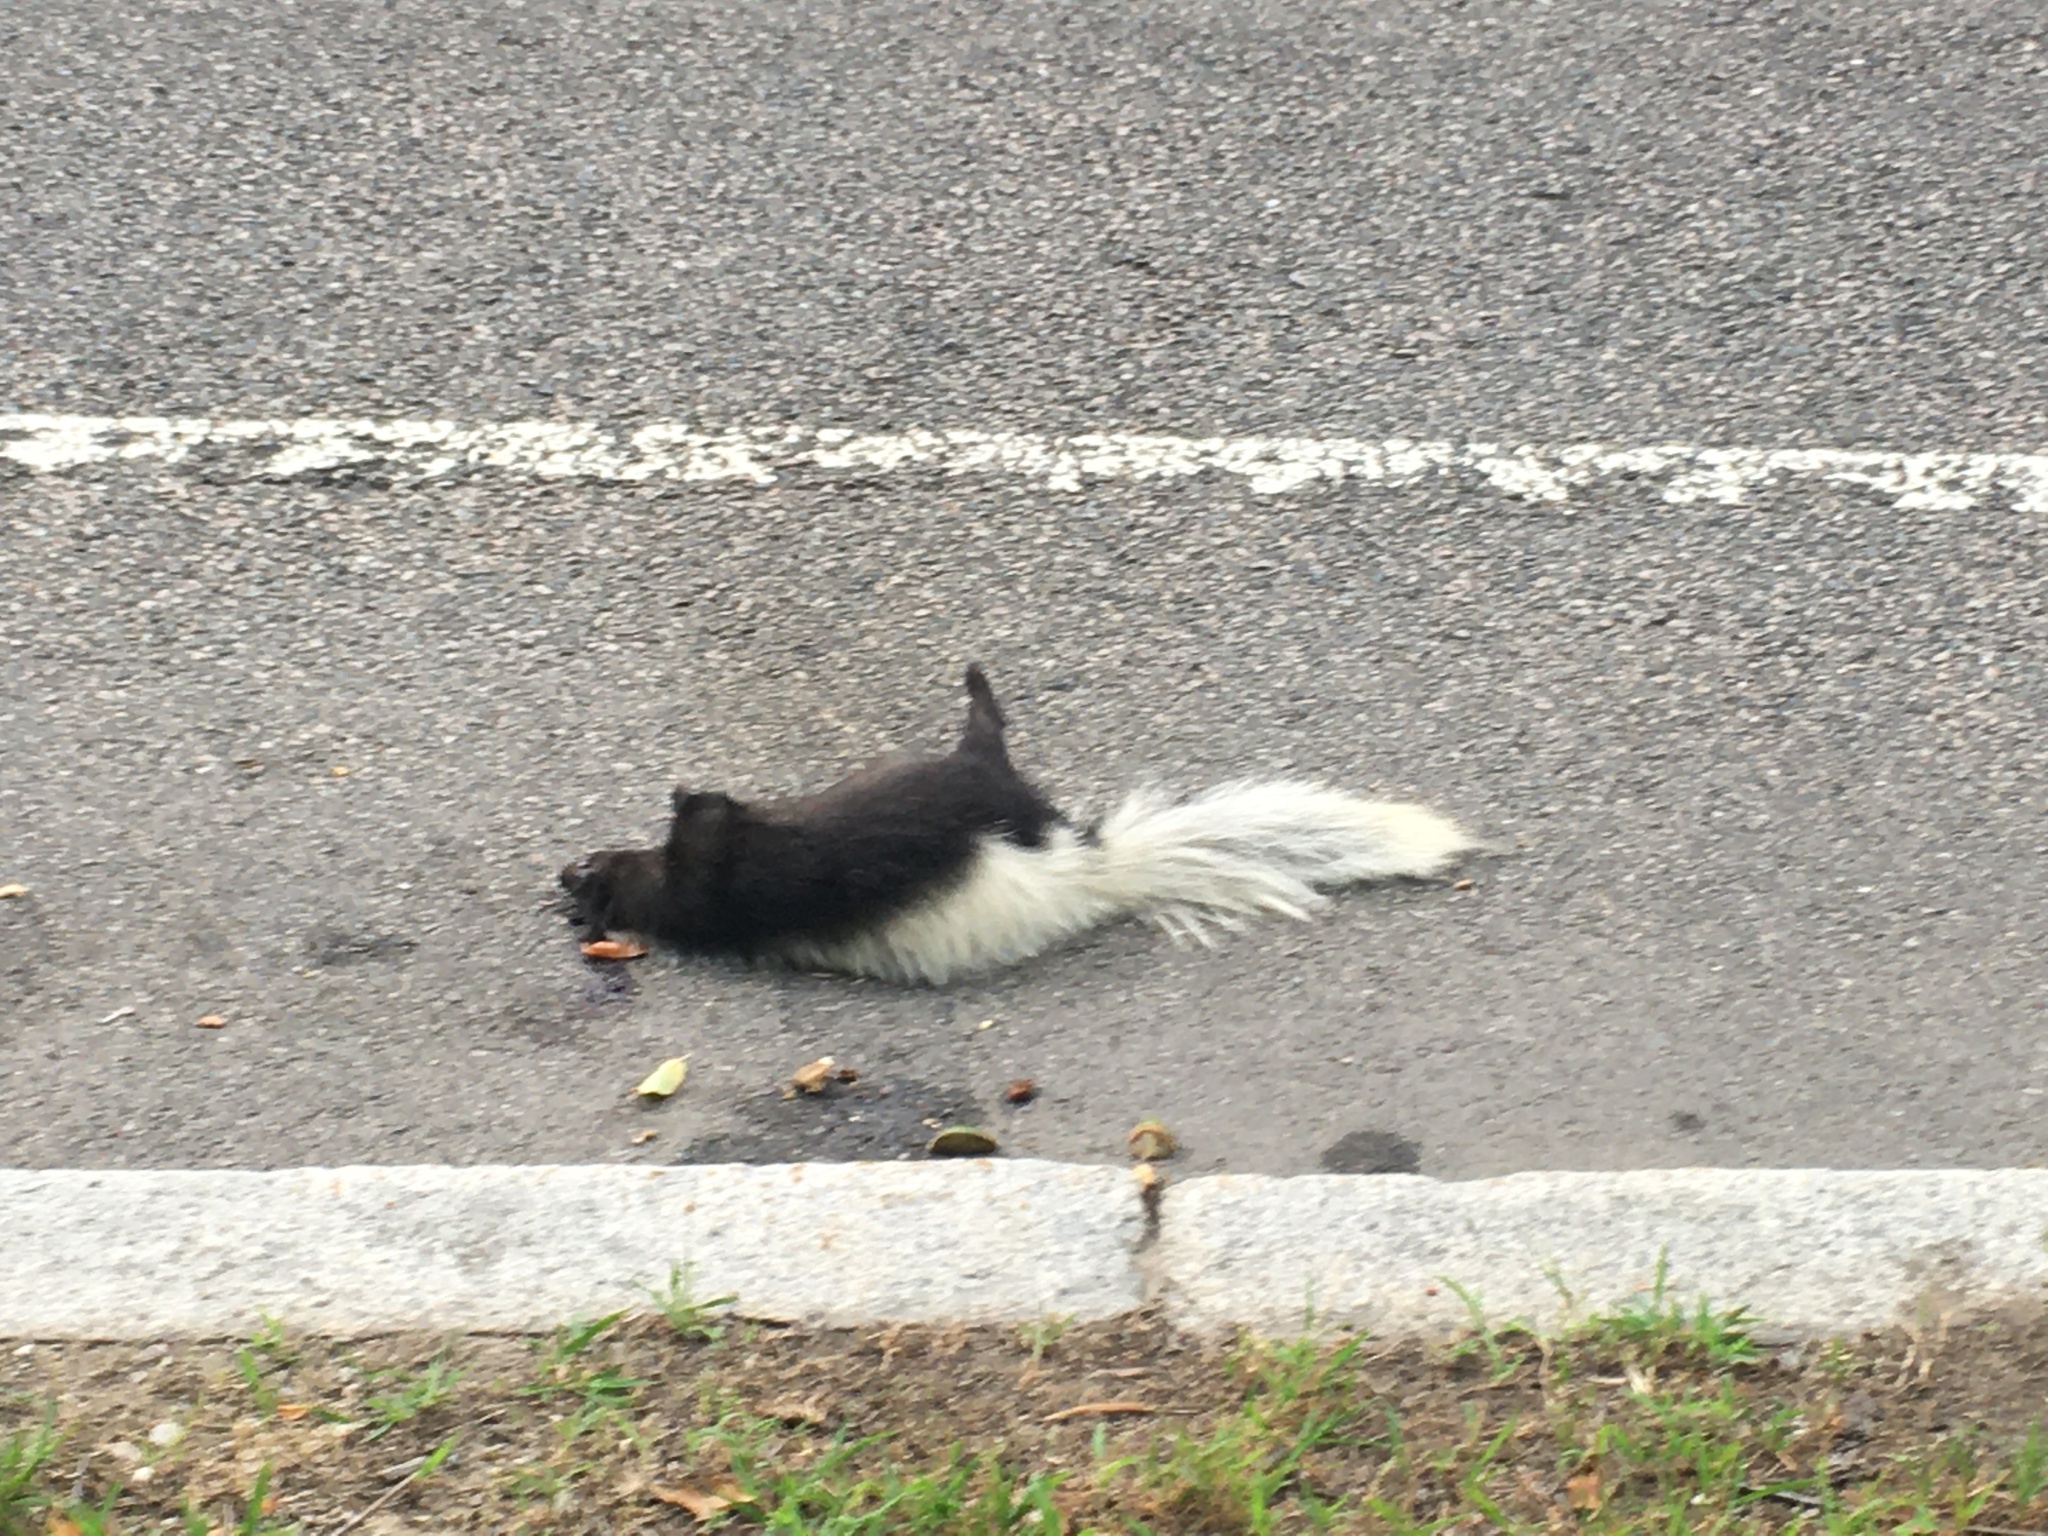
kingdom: Animalia
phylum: Chordata
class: Mammalia
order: Carnivora
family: Mephitidae
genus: Mephitis
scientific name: Mephitis mephitis
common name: Striped skunk
